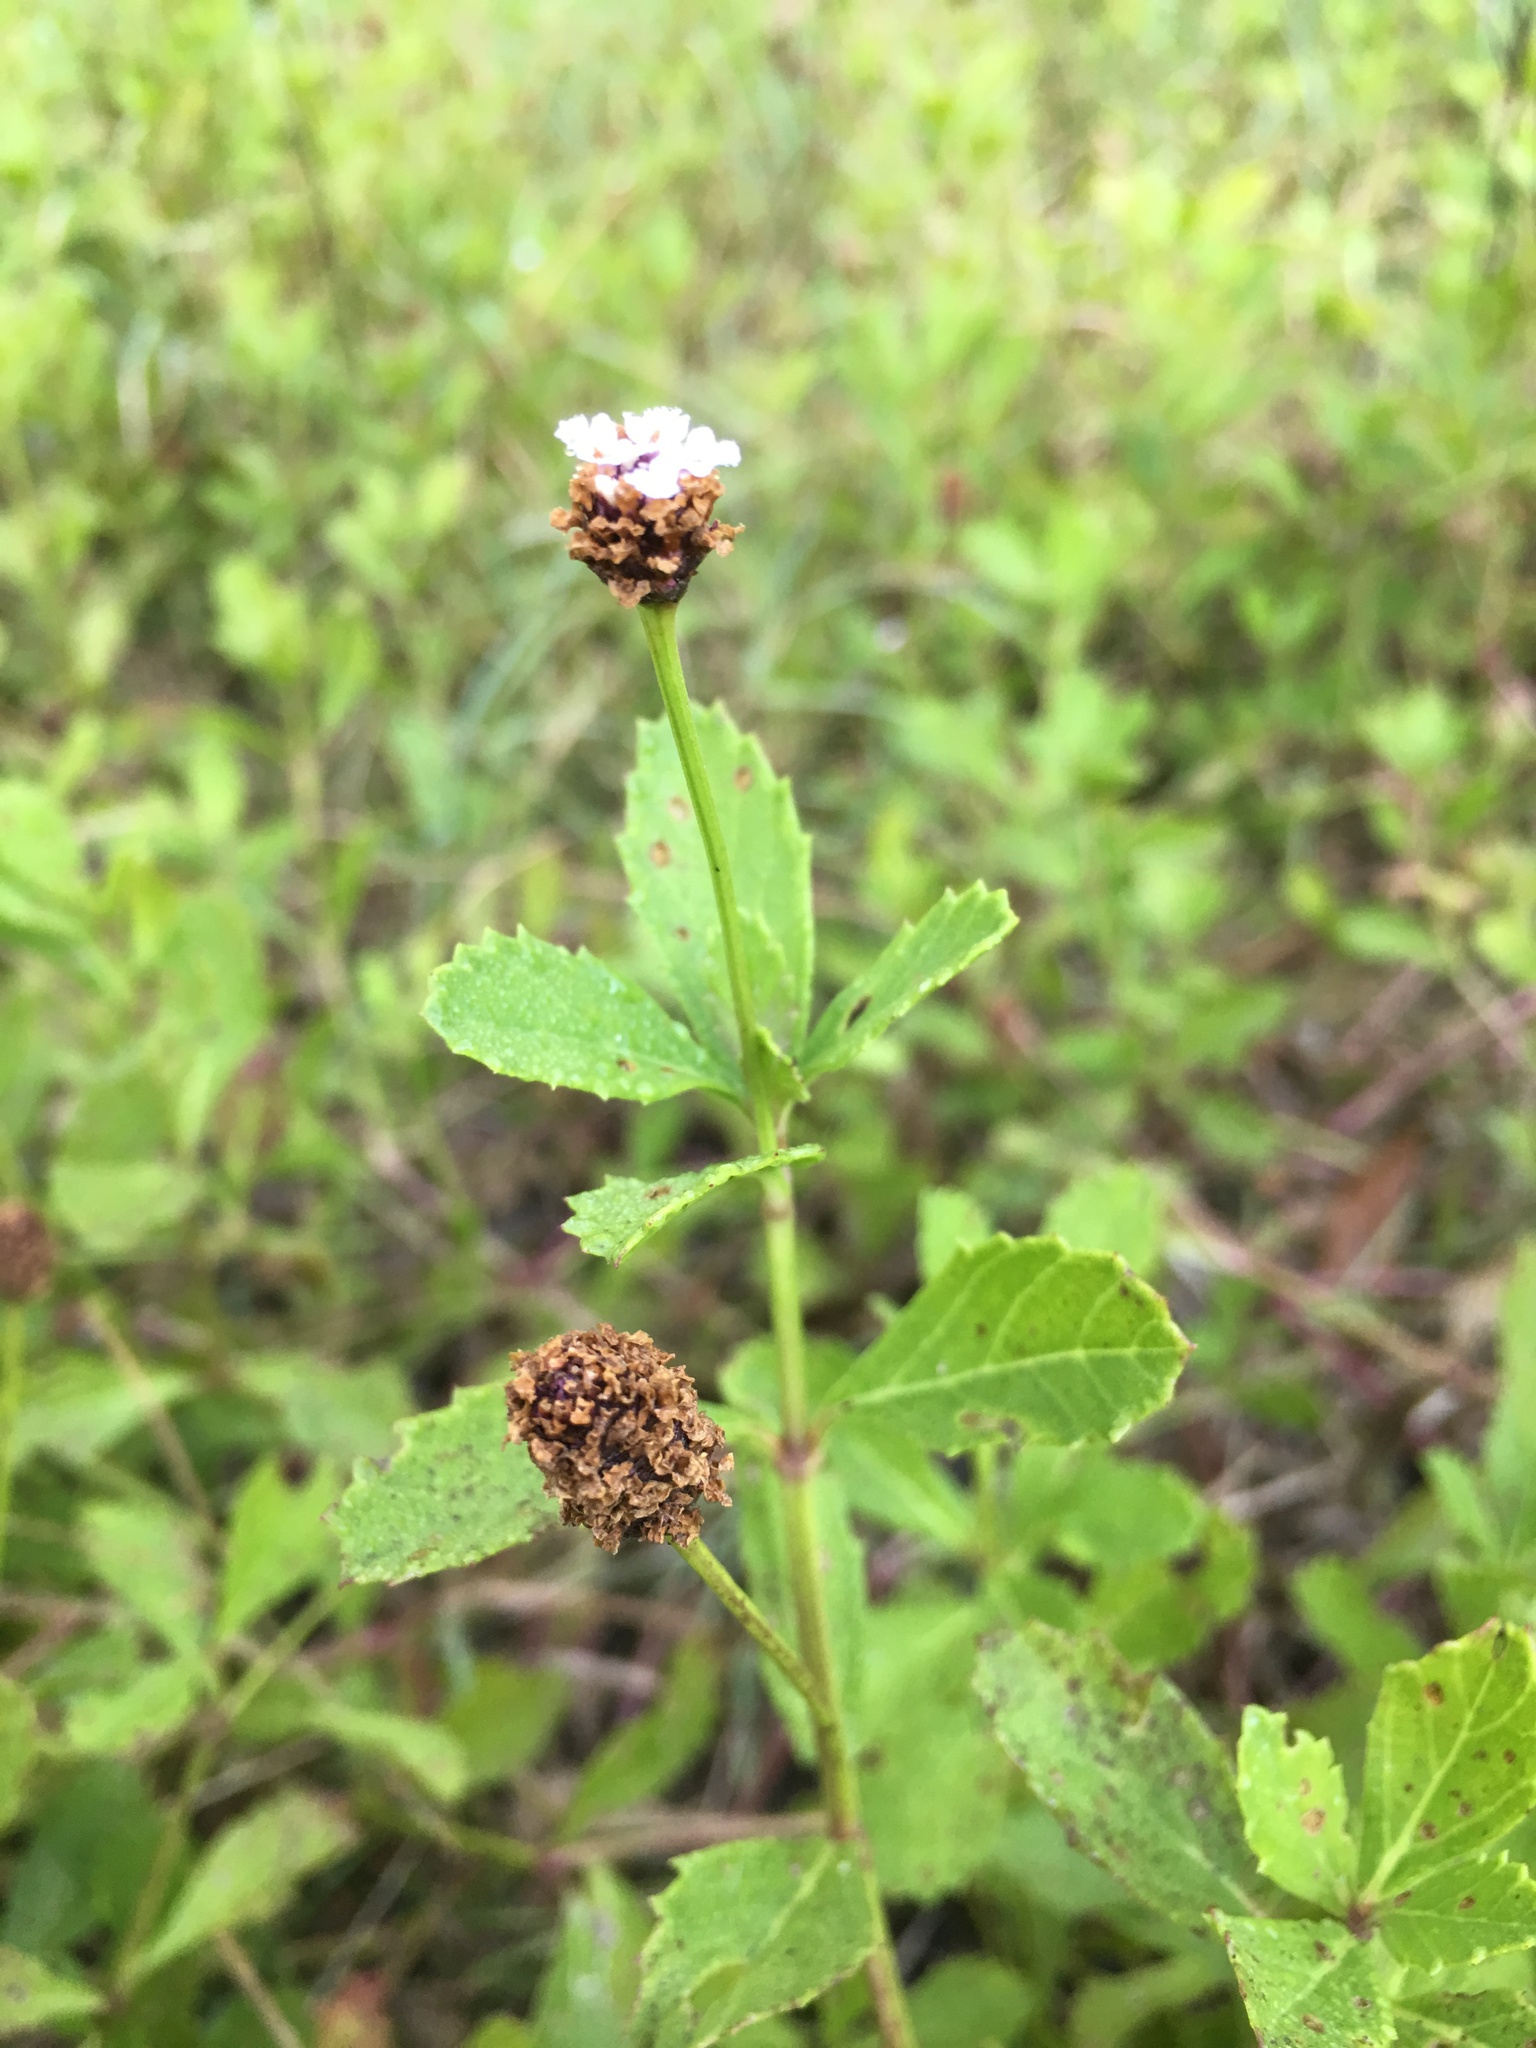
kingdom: Plantae
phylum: Tracheophyta
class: Magnoliopsida
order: Lamiales
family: Verbenaceae
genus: Phyla
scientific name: Phyla nodiflora
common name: Frogfruit
